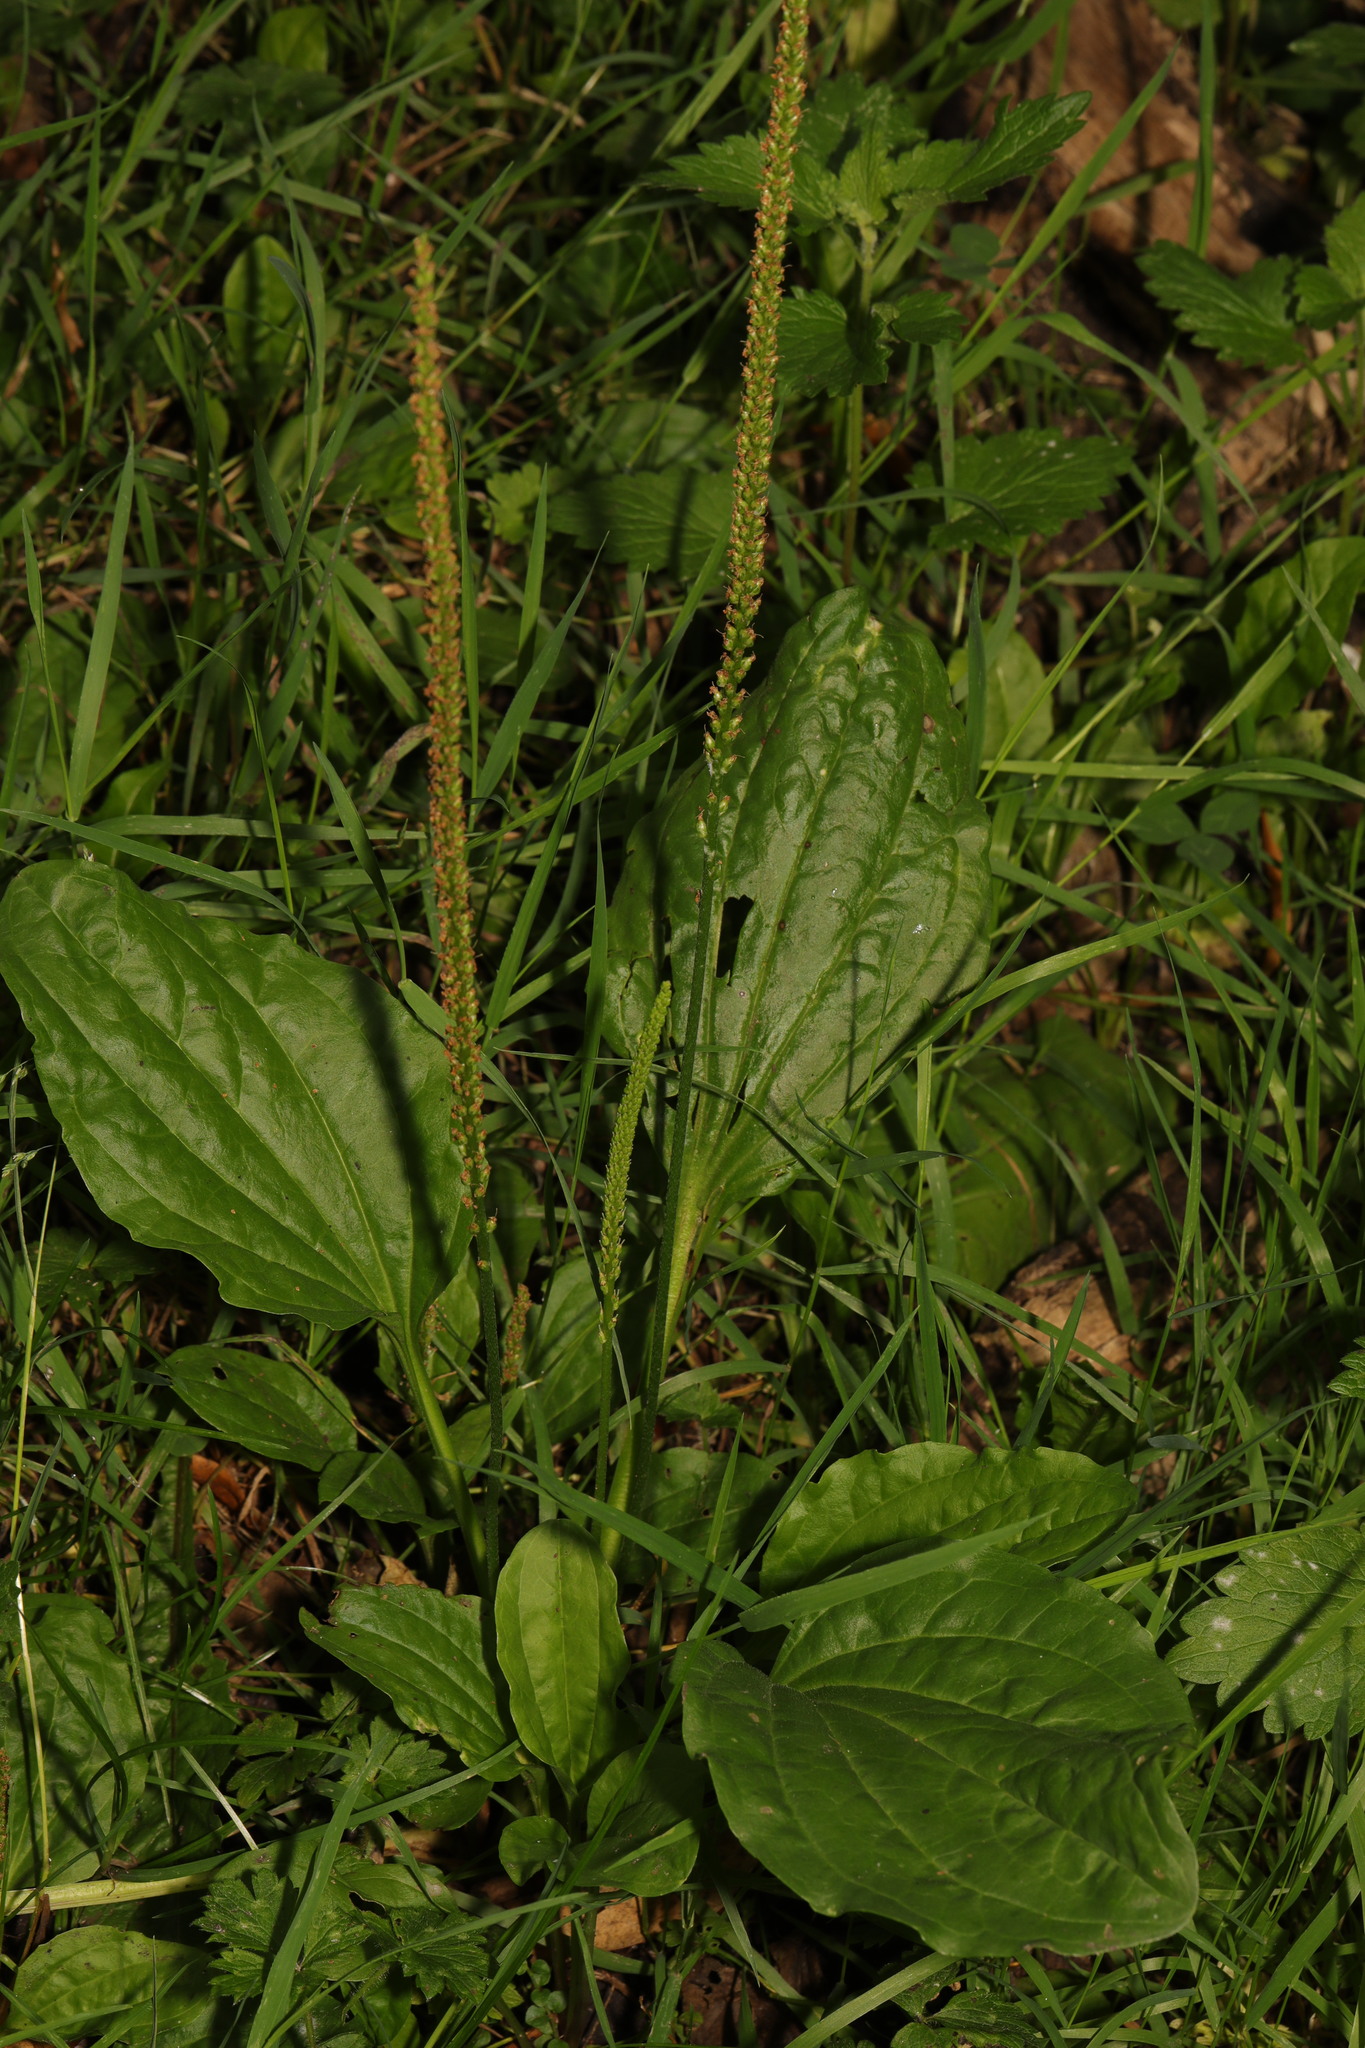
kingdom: Plantae
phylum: Tracheophyta
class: Magnoliopsida
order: Lamiales
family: Plantaginaceae
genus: Plantago
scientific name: Plantago major
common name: Common plantain
